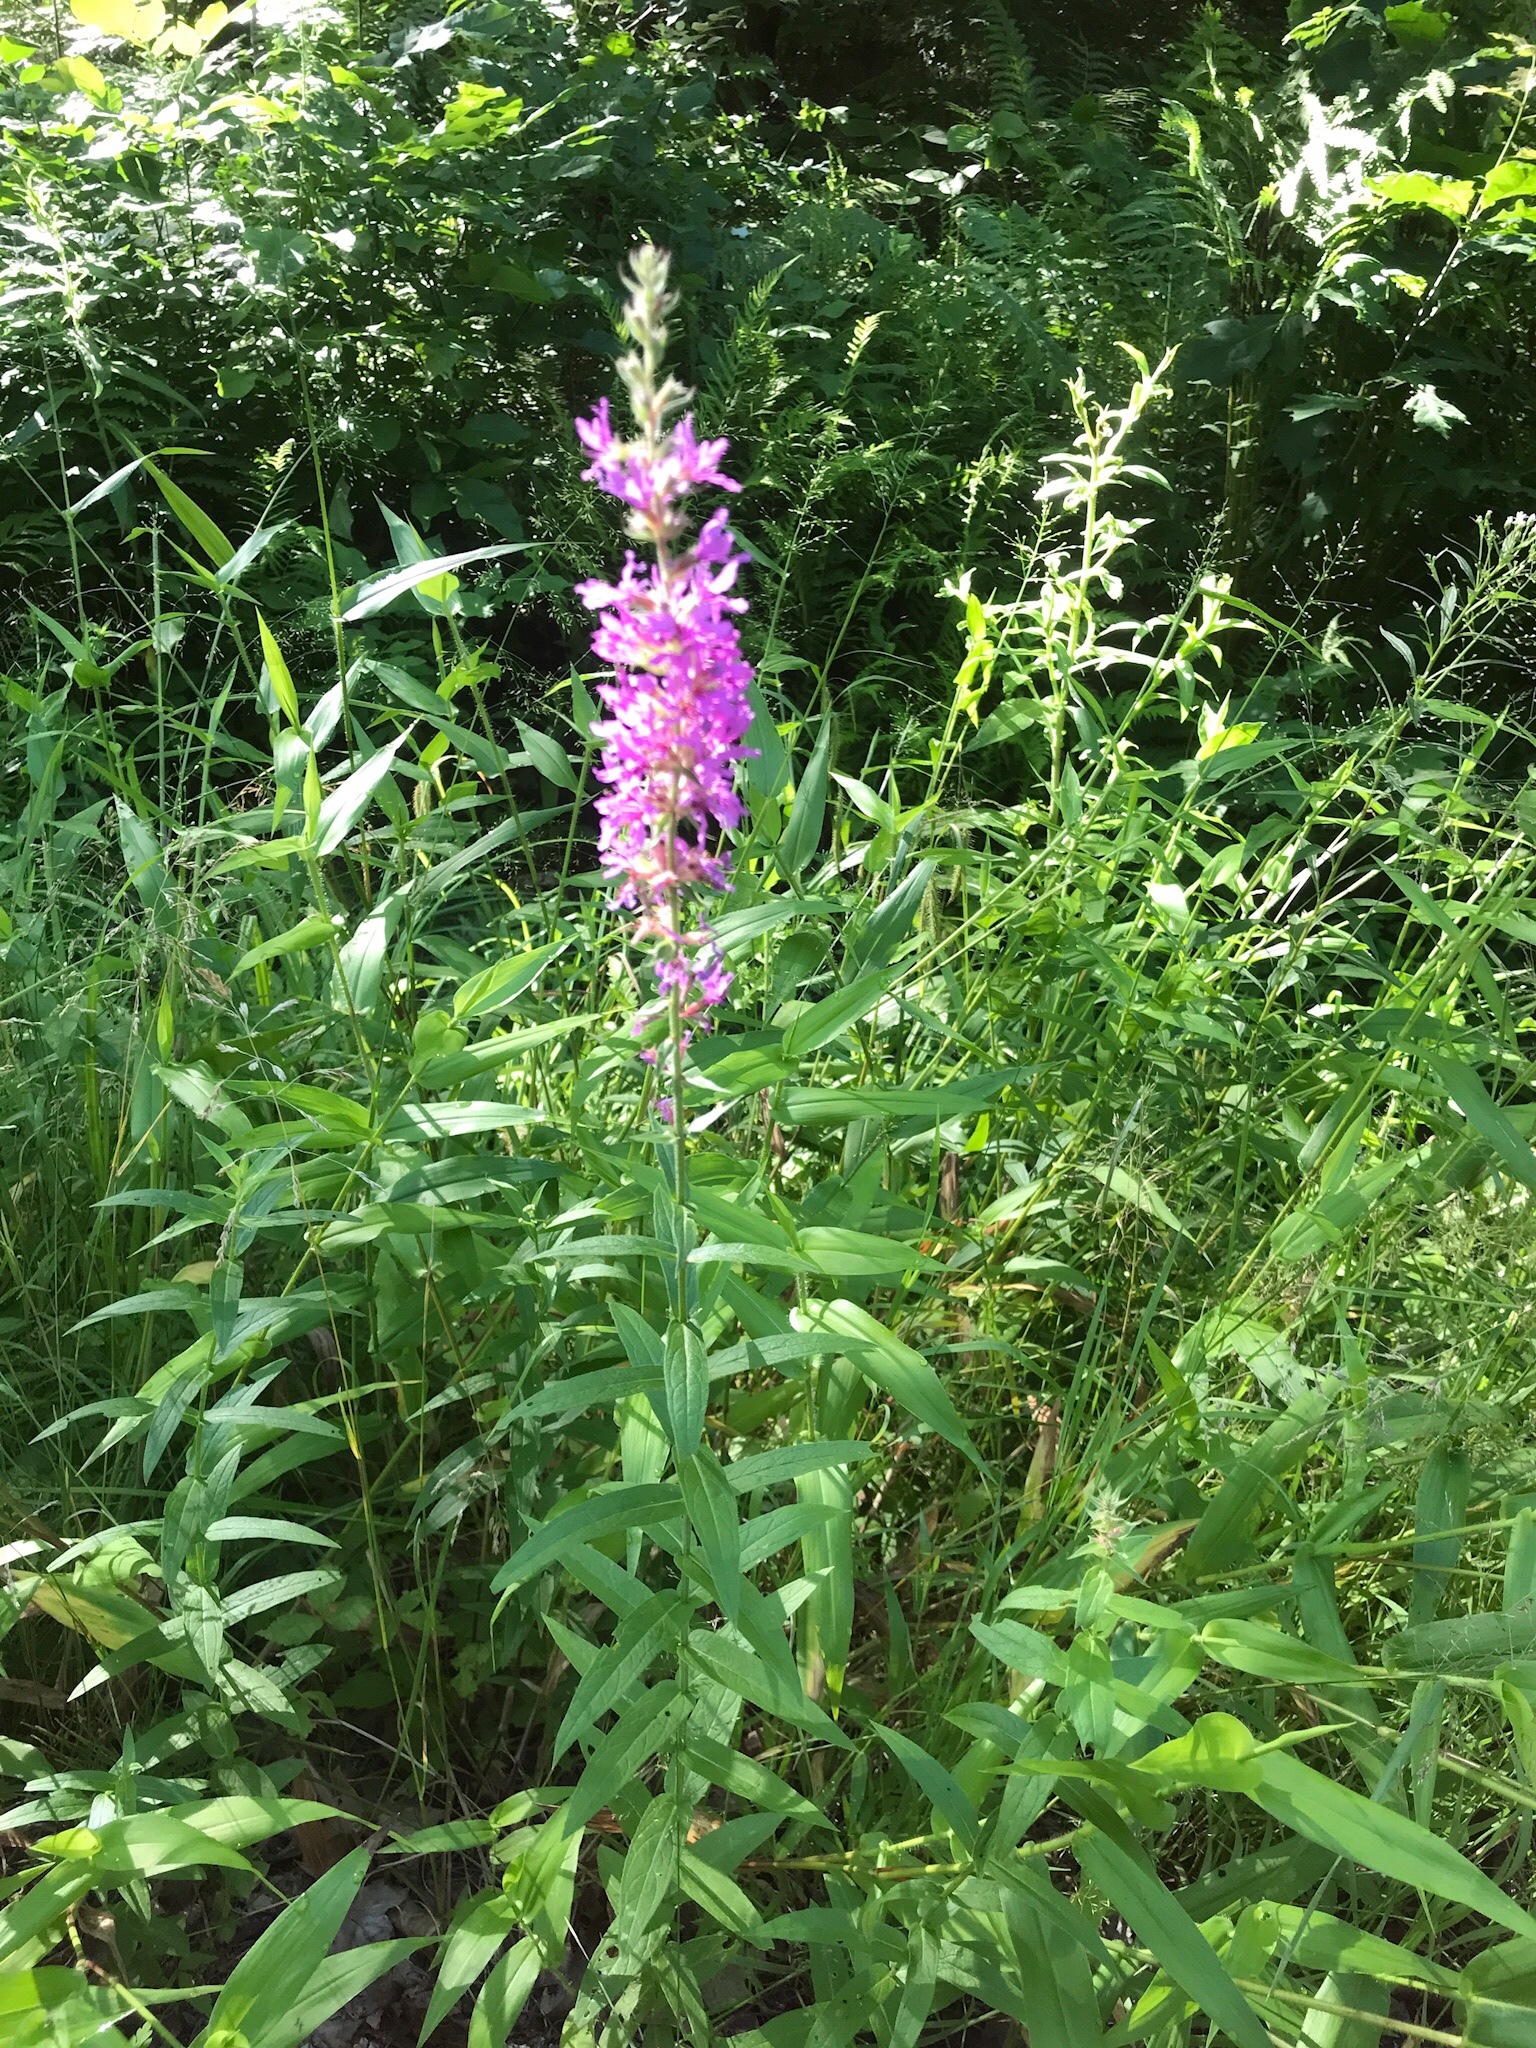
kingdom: Plantae
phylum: Tracheophyta
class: Magnoliopsida
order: Myrtales
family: Onagraceae
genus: Chamaenerion
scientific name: Chamaenerion angustifolium
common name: Fireweed
